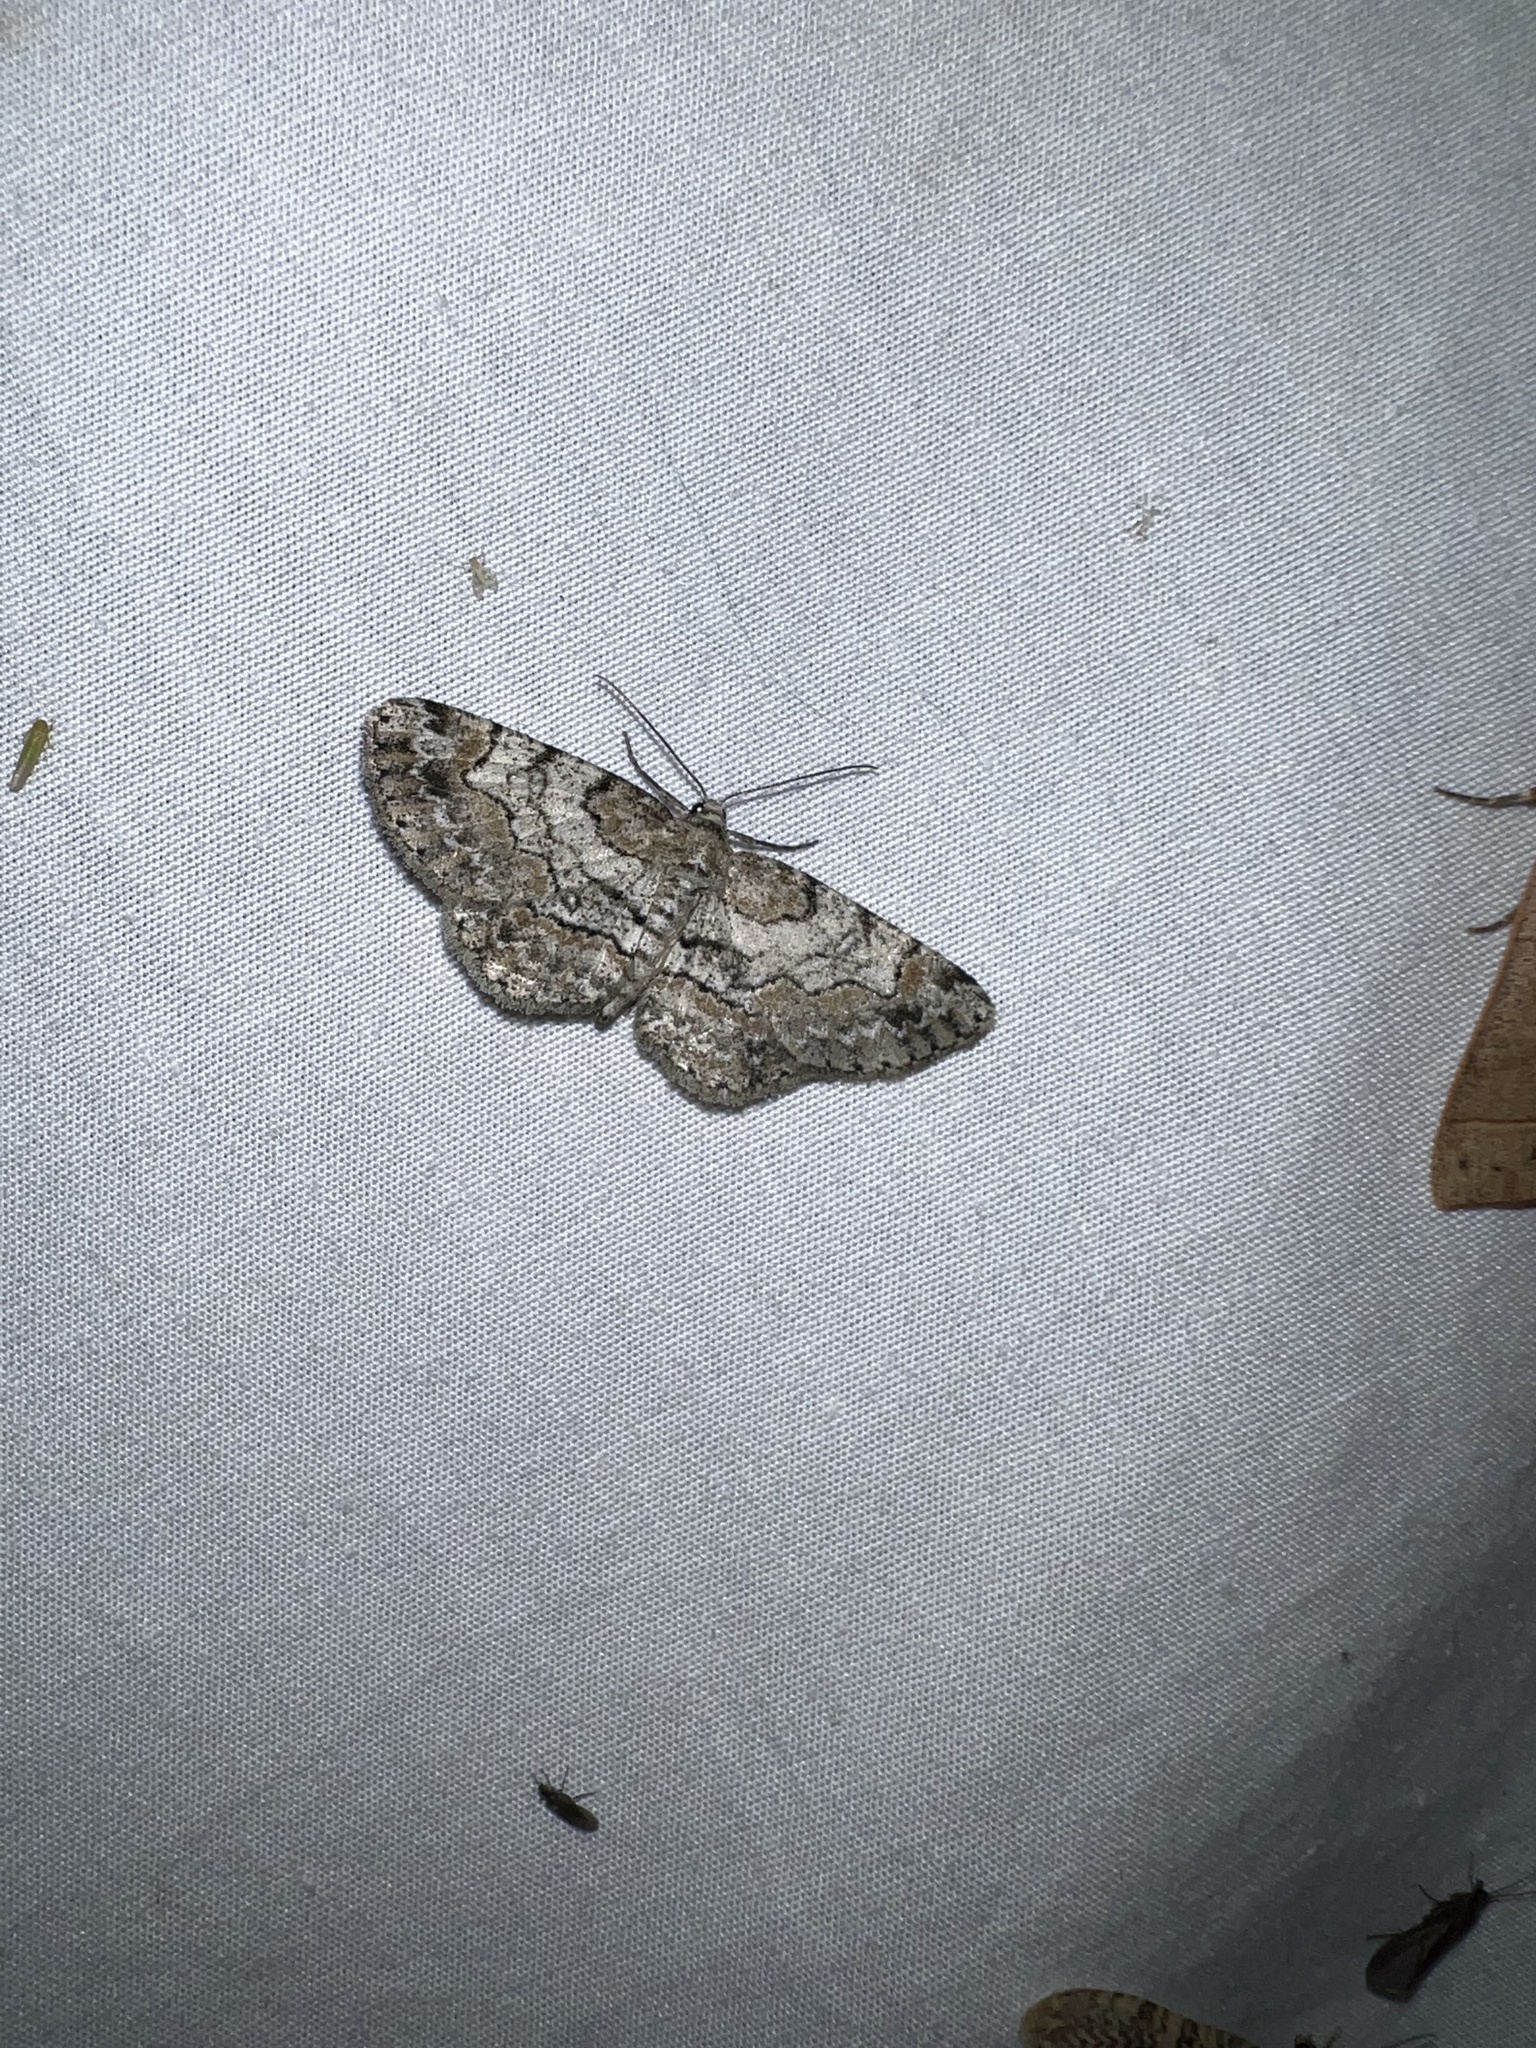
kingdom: Animalia
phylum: Arthropoda
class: Insecta
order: Lepidoptera
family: Geometridae
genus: Iridopsis
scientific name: Iridopsis ephyraria
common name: Pale-winged gray
